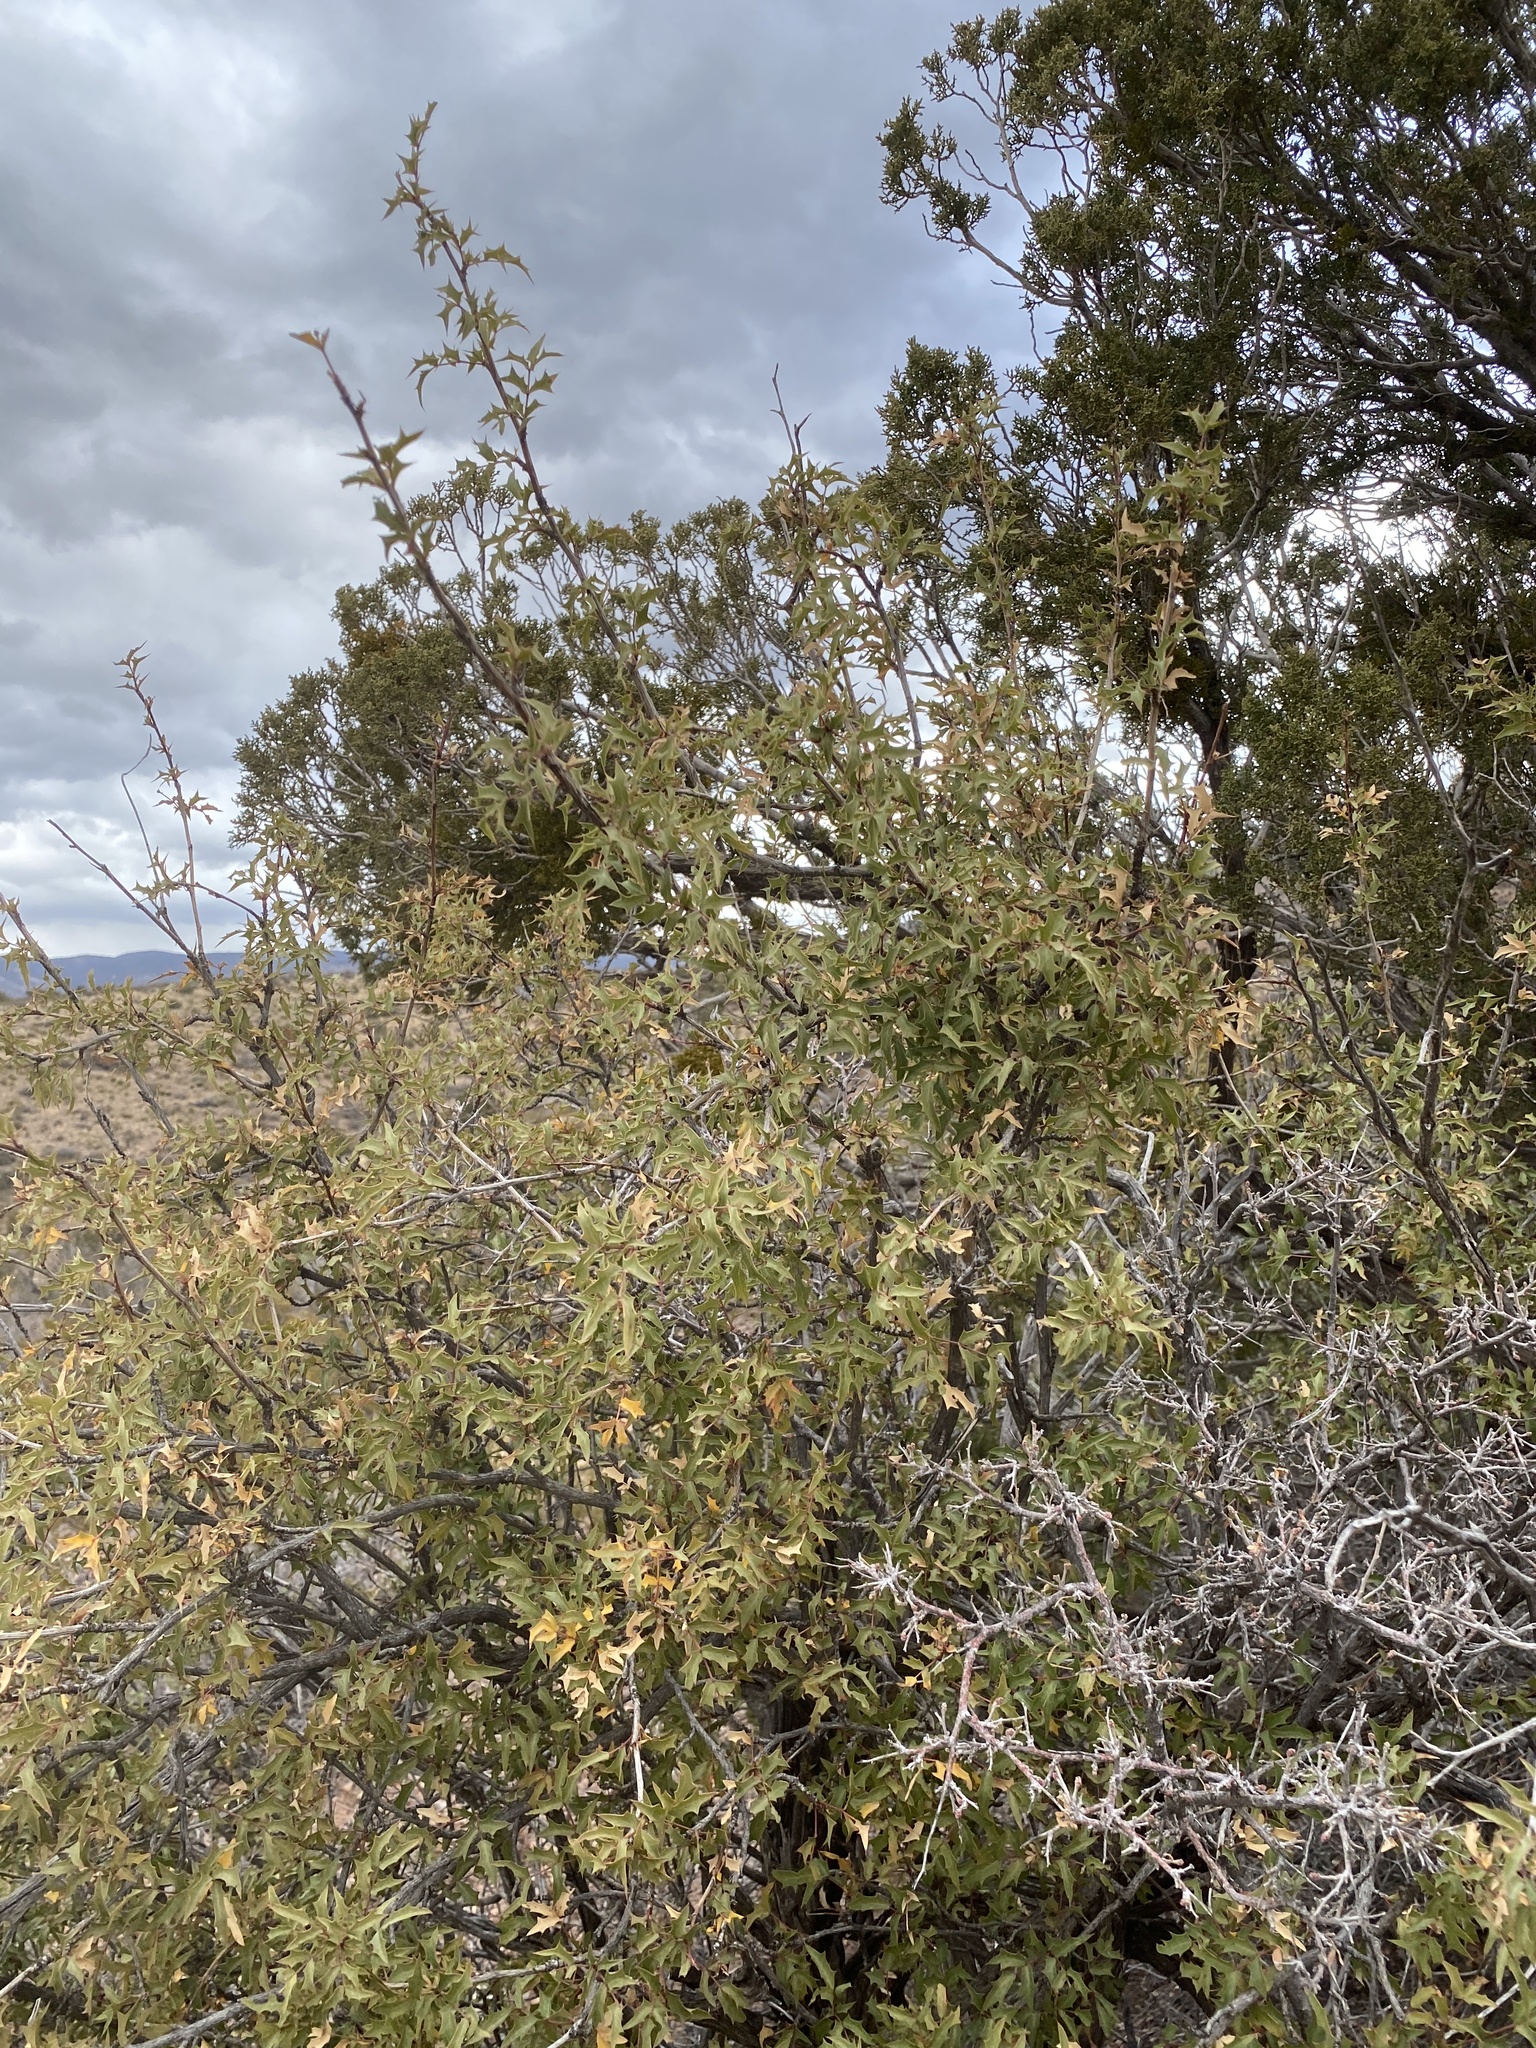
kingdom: Plantae
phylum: Tracheophyta
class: Magnoliopsida
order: Ranunculales
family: Berberidaceae
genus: Alloberberis
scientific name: Alloberberis haematocarpa
